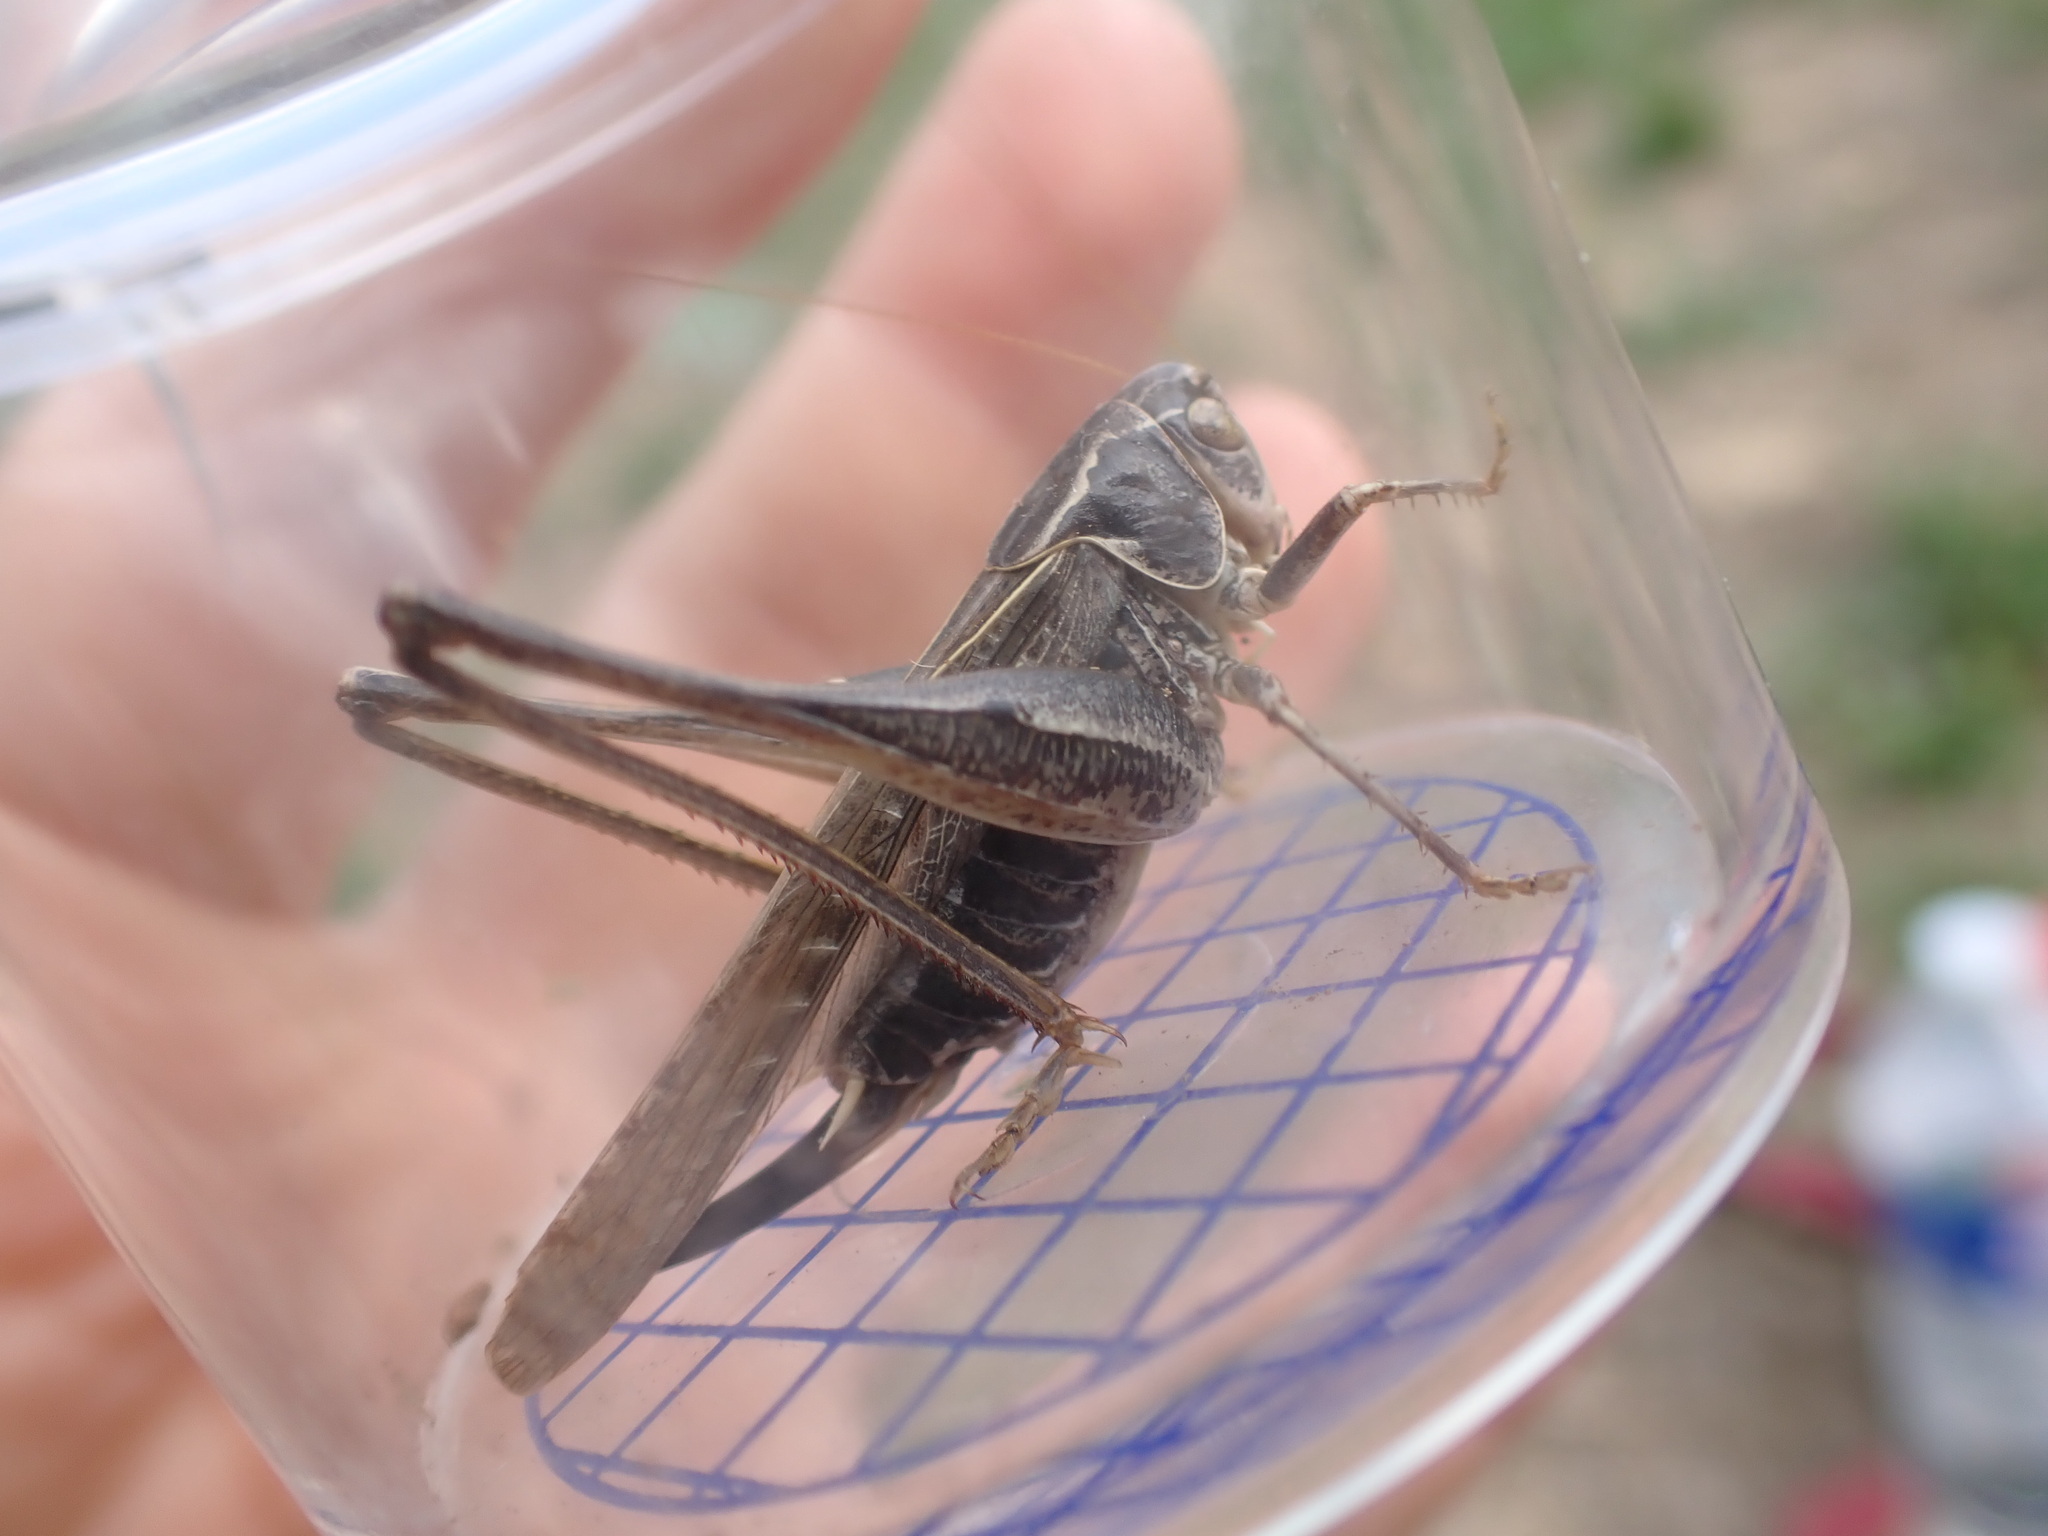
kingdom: Animalia
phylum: Arthropoda
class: Insecta
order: Orthoptera
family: Tettigoniidae
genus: Platycleis
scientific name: Platycleis affinis
